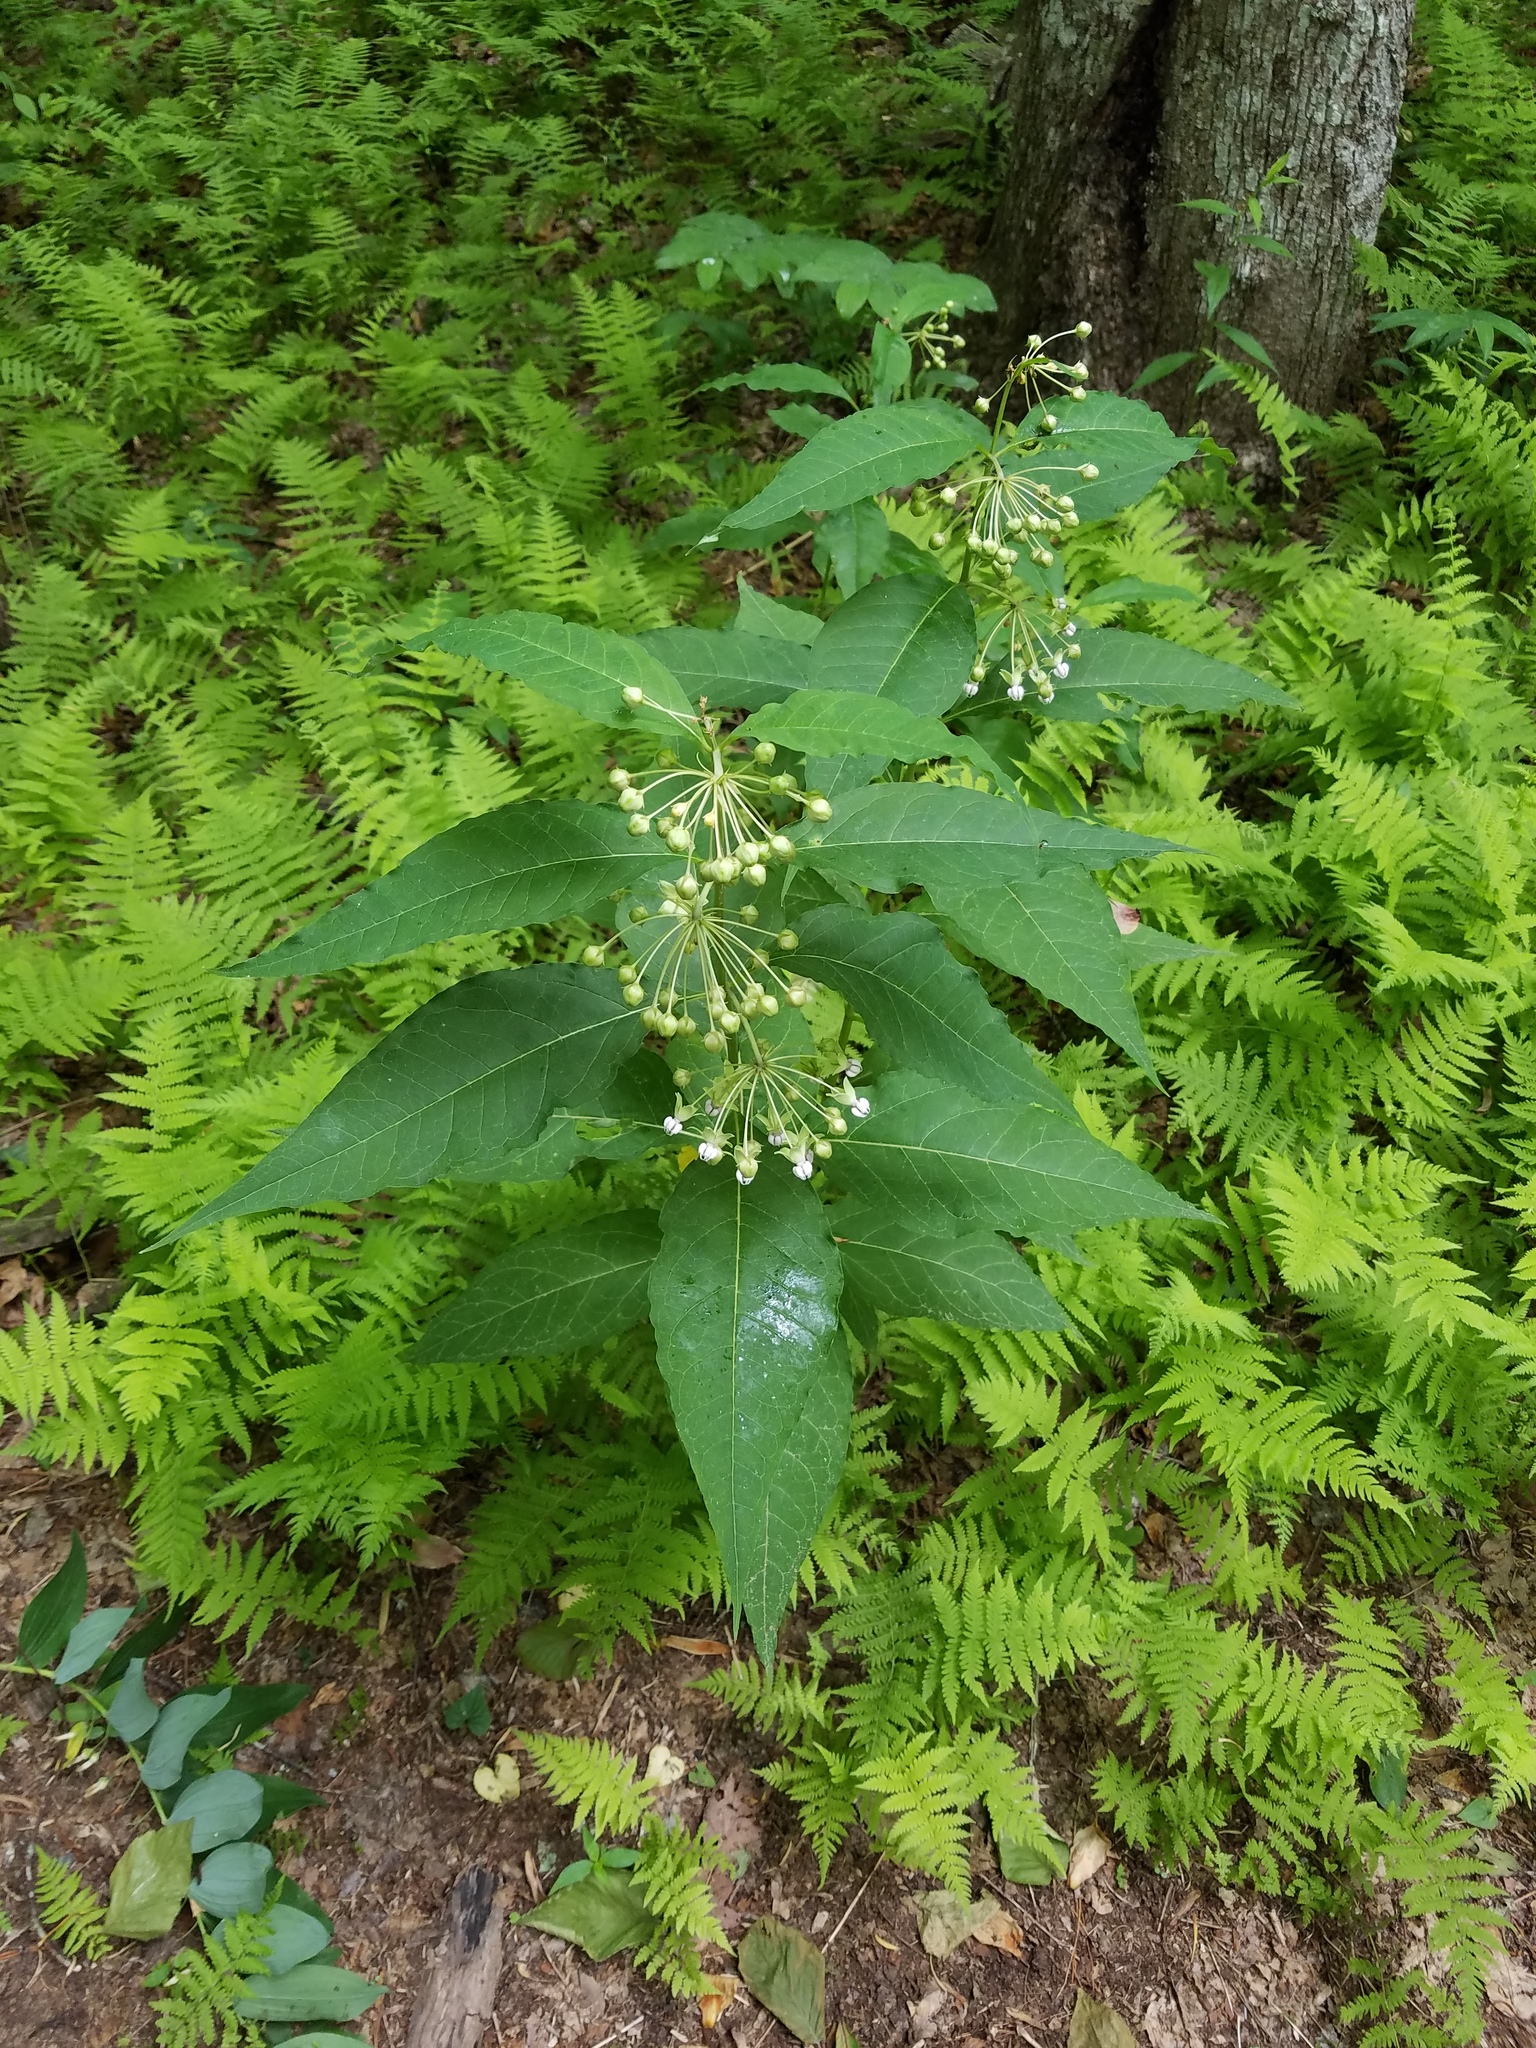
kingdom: Plantae
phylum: Tracheophyta
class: Magnoliopsida
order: Gentianales
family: Apocynaceae
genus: Asclepias
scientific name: Asclepias exaltata
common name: Poke milkweed
